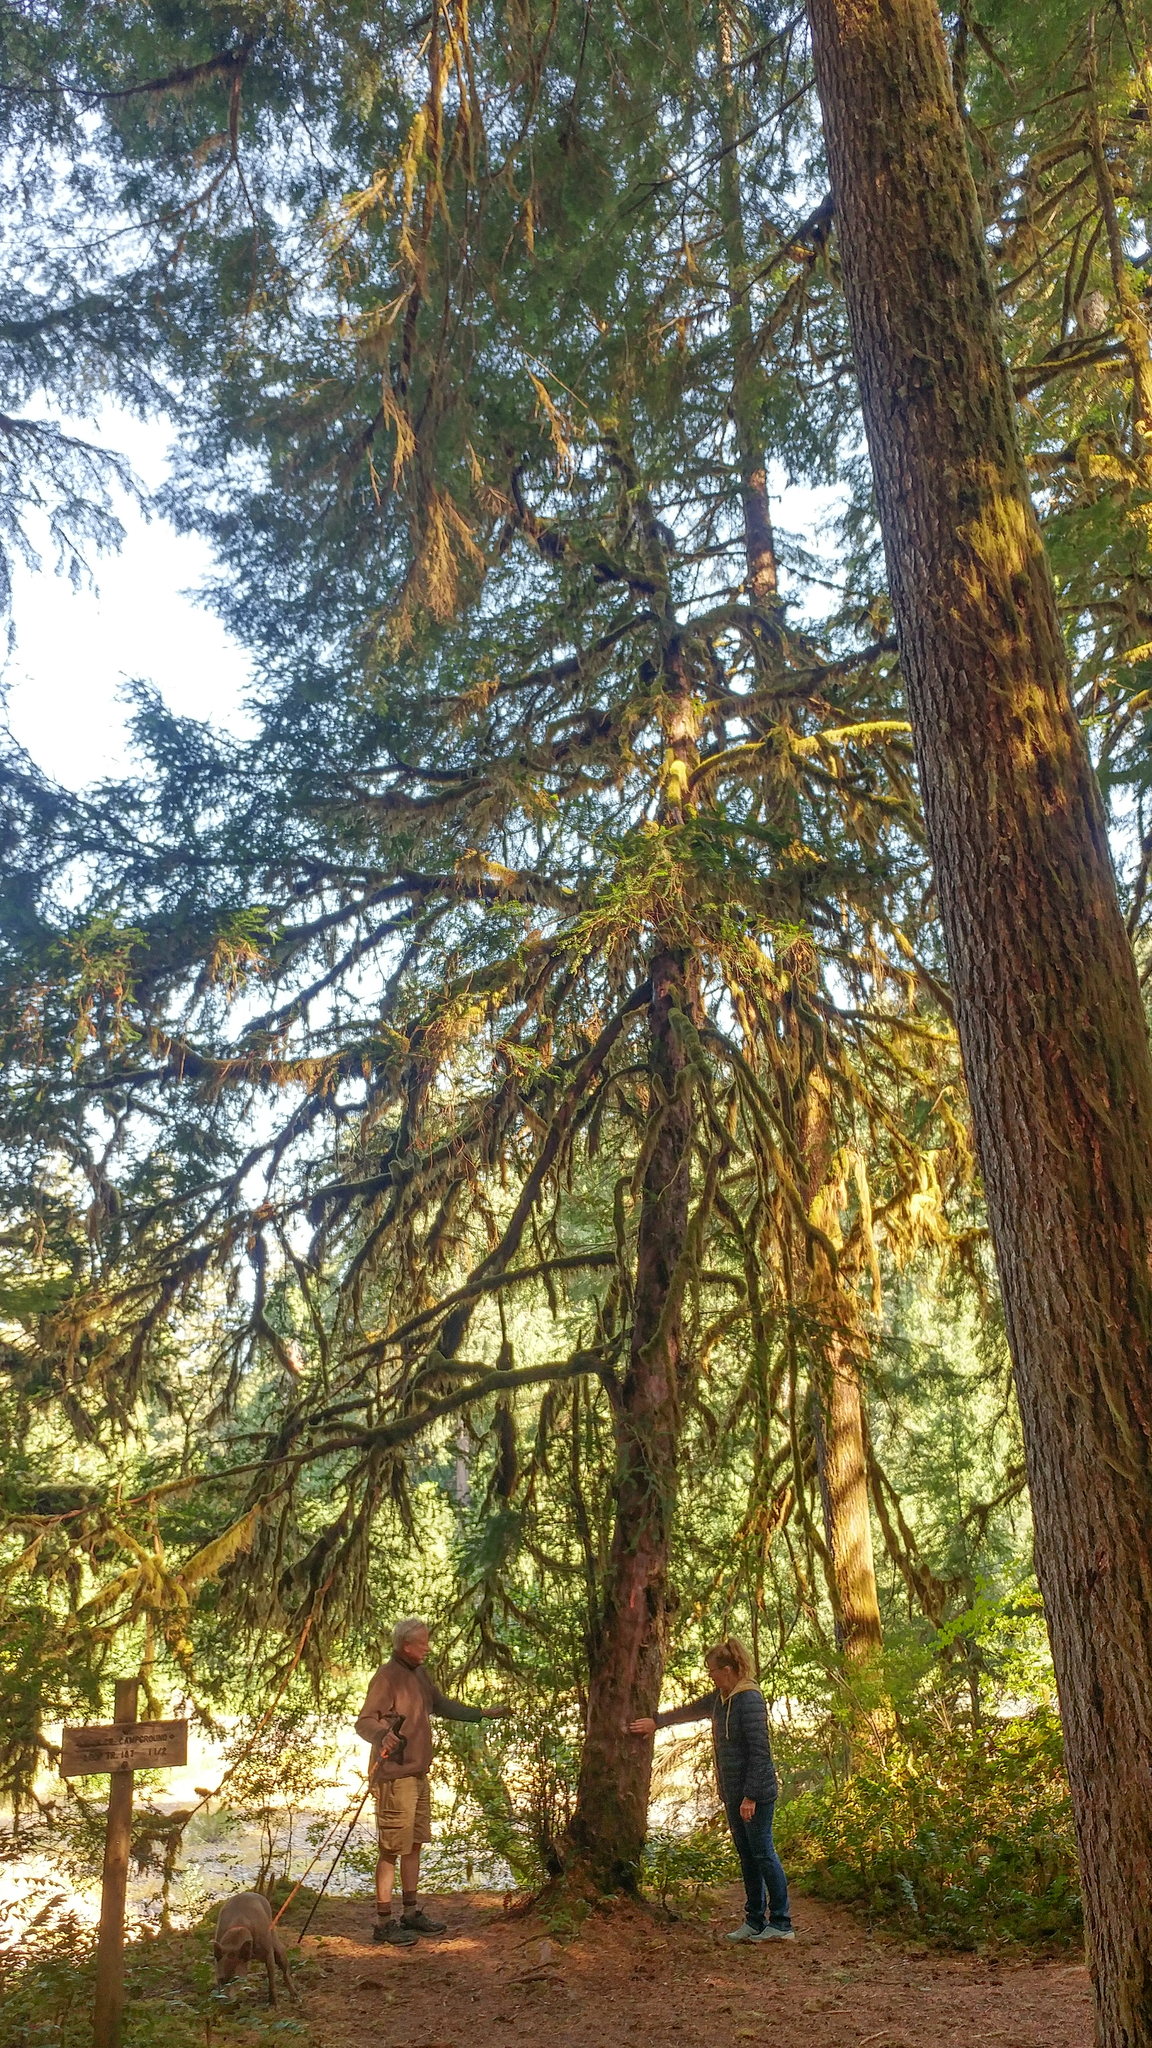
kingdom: Plantae
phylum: Tracheophyta
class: Pinopsida
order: Pinales
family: Taxaceae
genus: Taxus
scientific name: Taxus brevifolia
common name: Pacific yew
